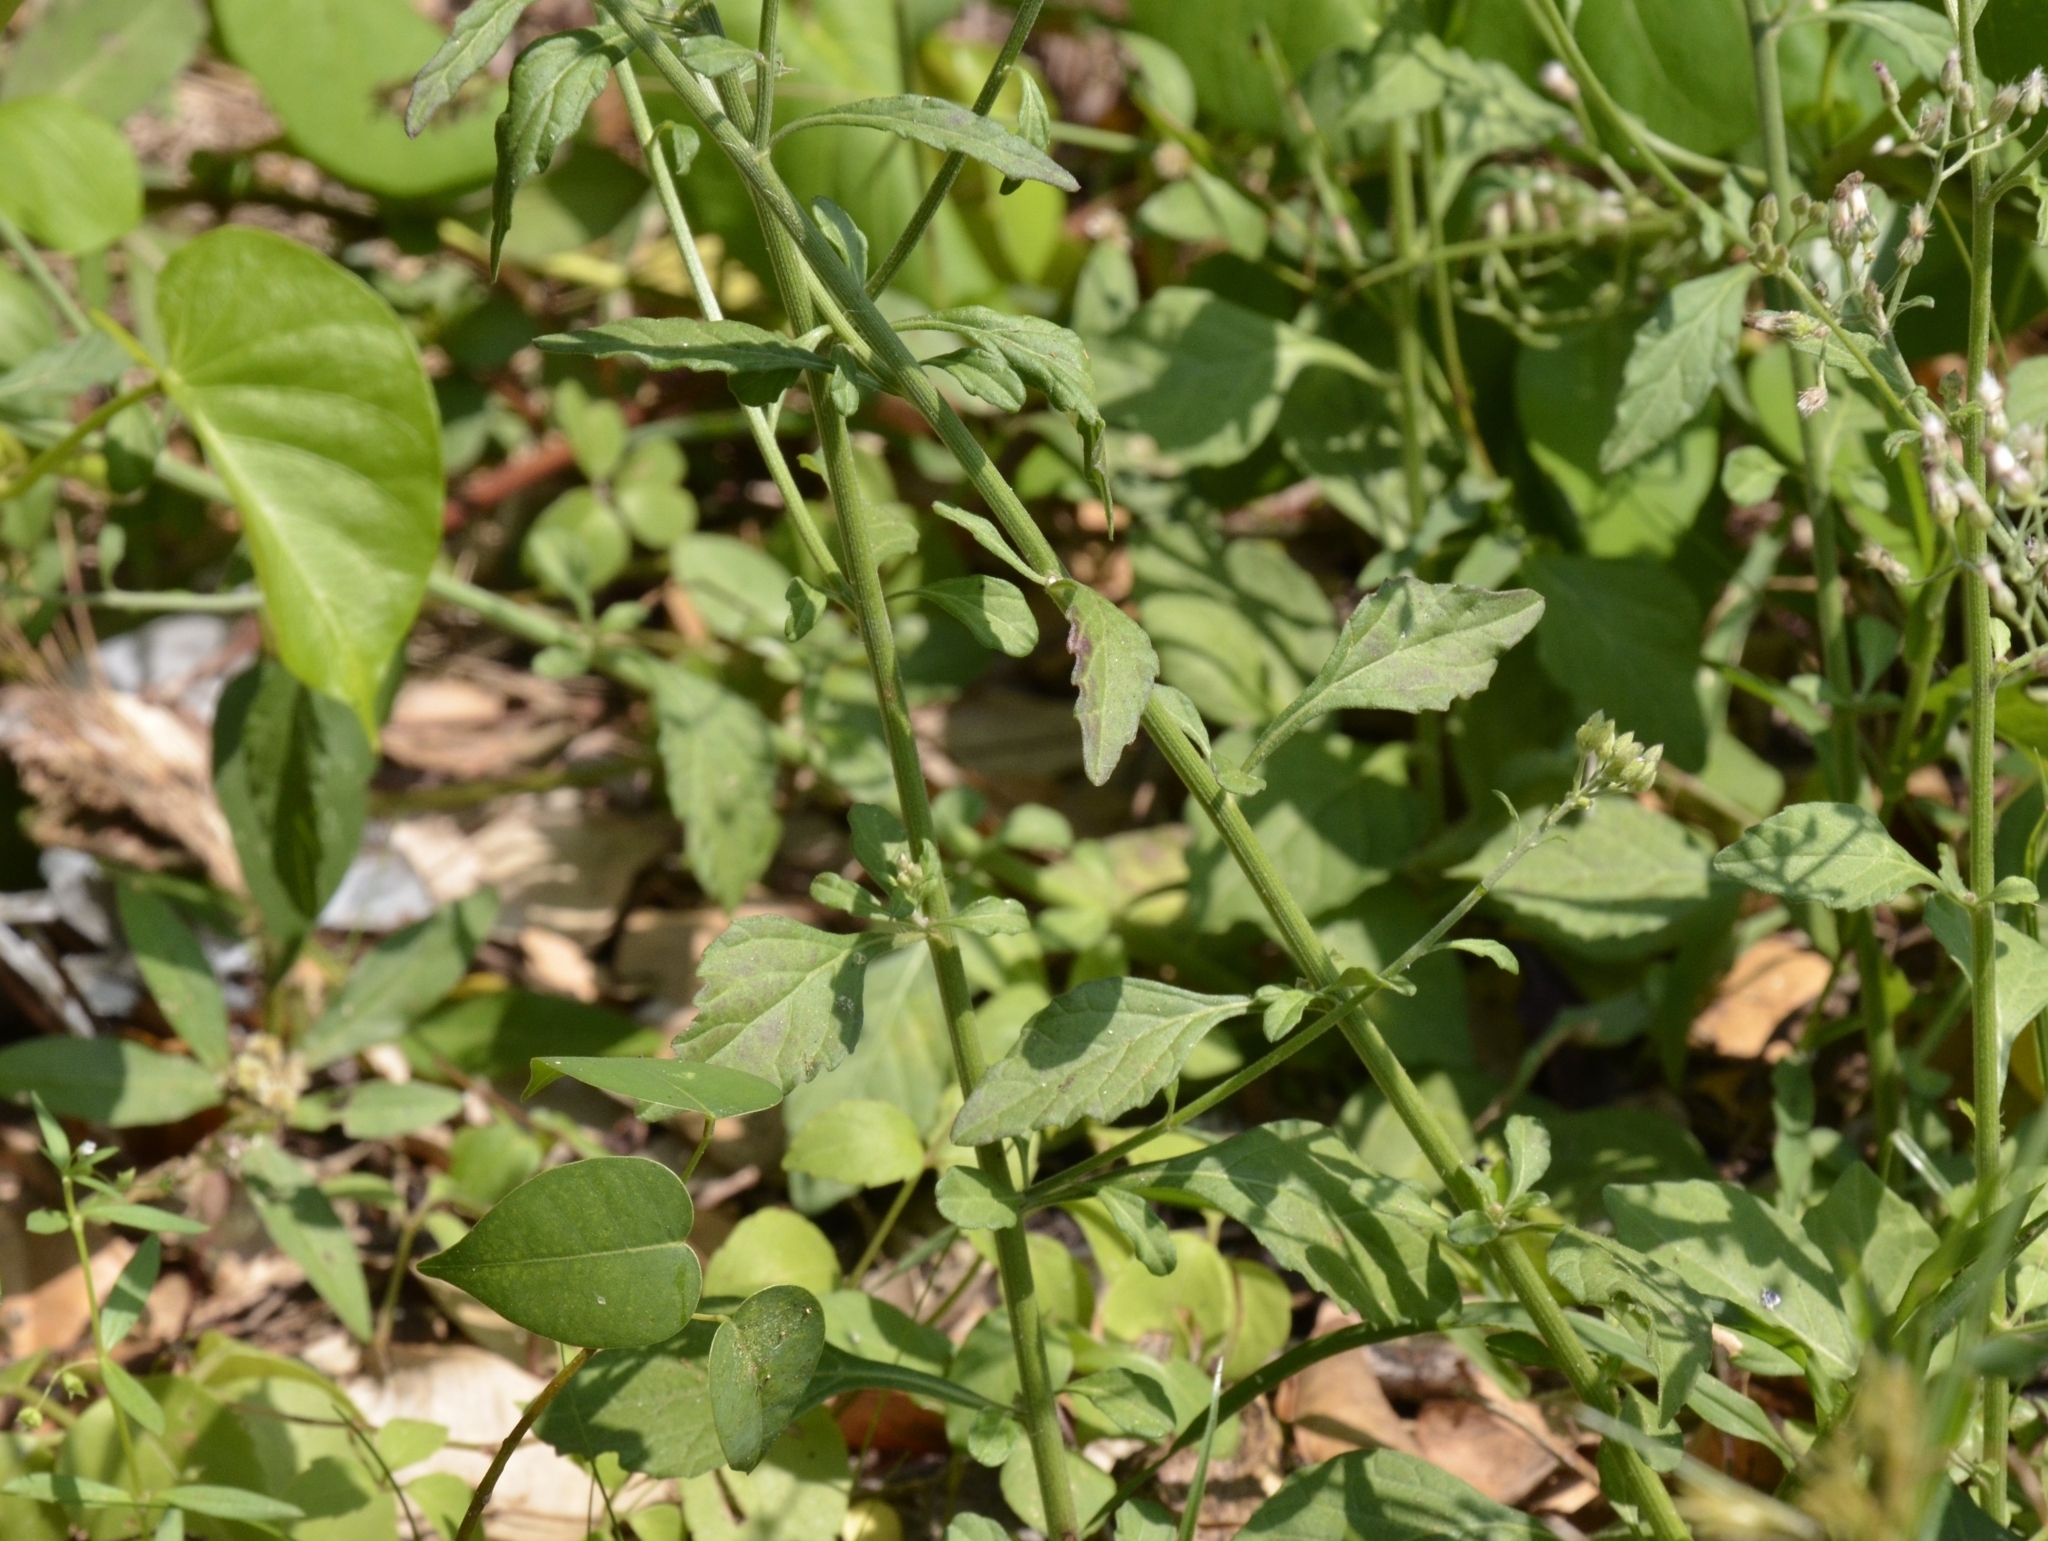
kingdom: Plantae
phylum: Tracheophyta
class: Magnoliopsida
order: Asterales
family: Asteraceae
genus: Cyanthillium
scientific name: Cyanthillium cinereum
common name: Little ironweed
